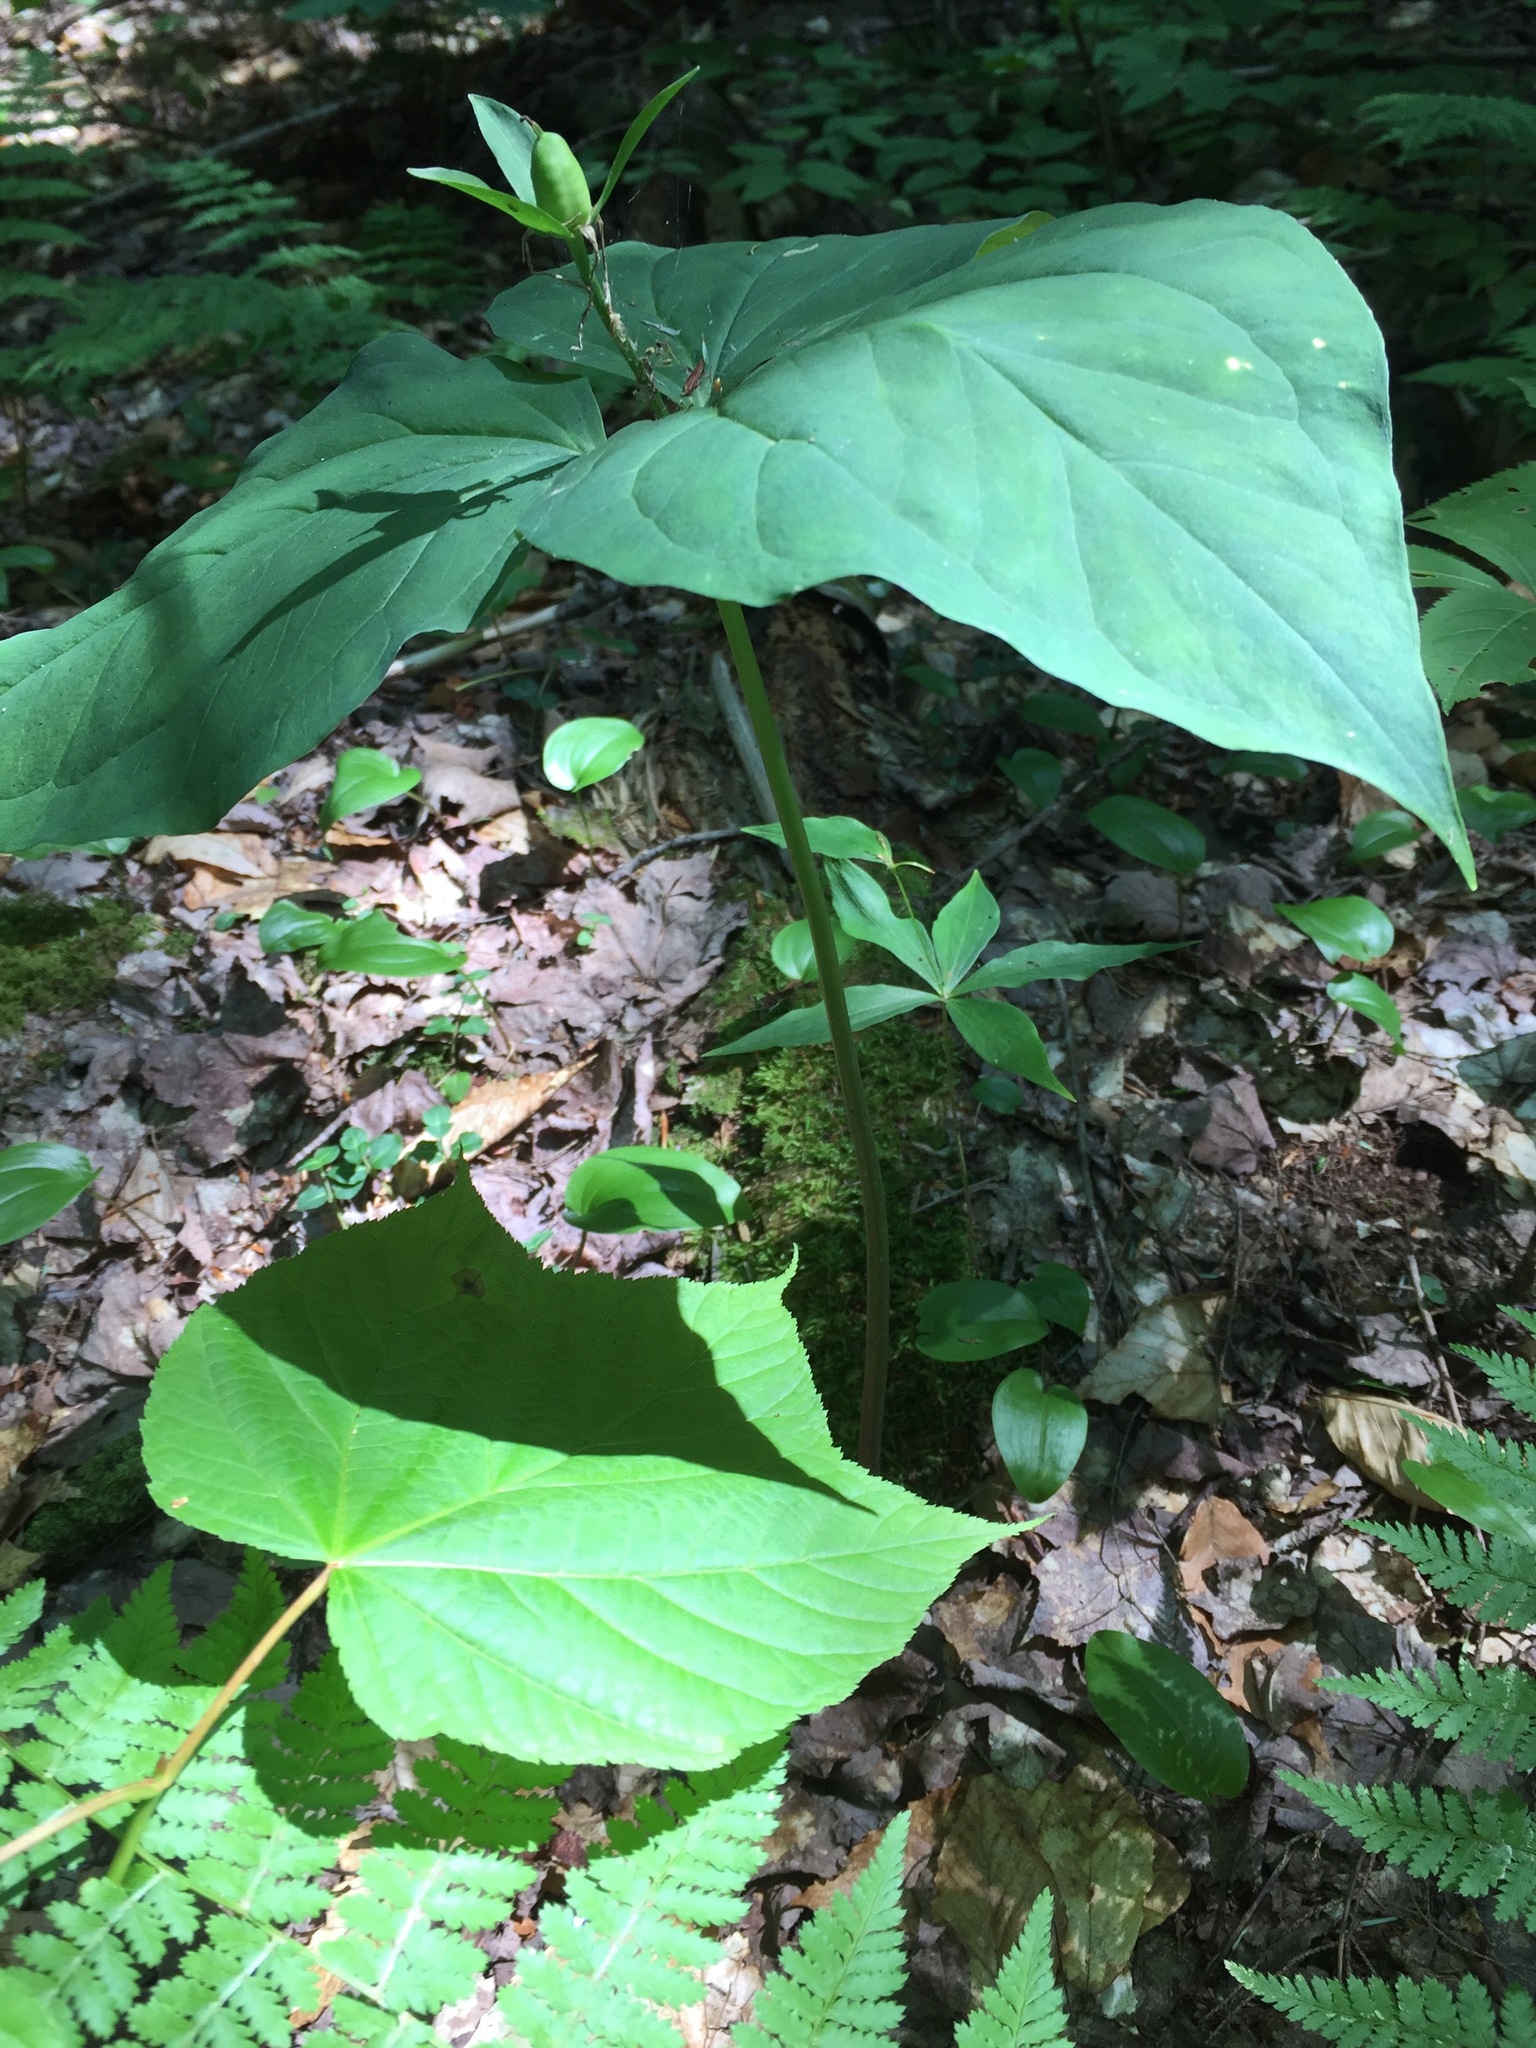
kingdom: Plantae
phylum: Tracheophyta
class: Liliopsida
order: Liliales
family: Melanthiaceae
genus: Trillium
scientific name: Trillium undulatum
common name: Paint trillium
